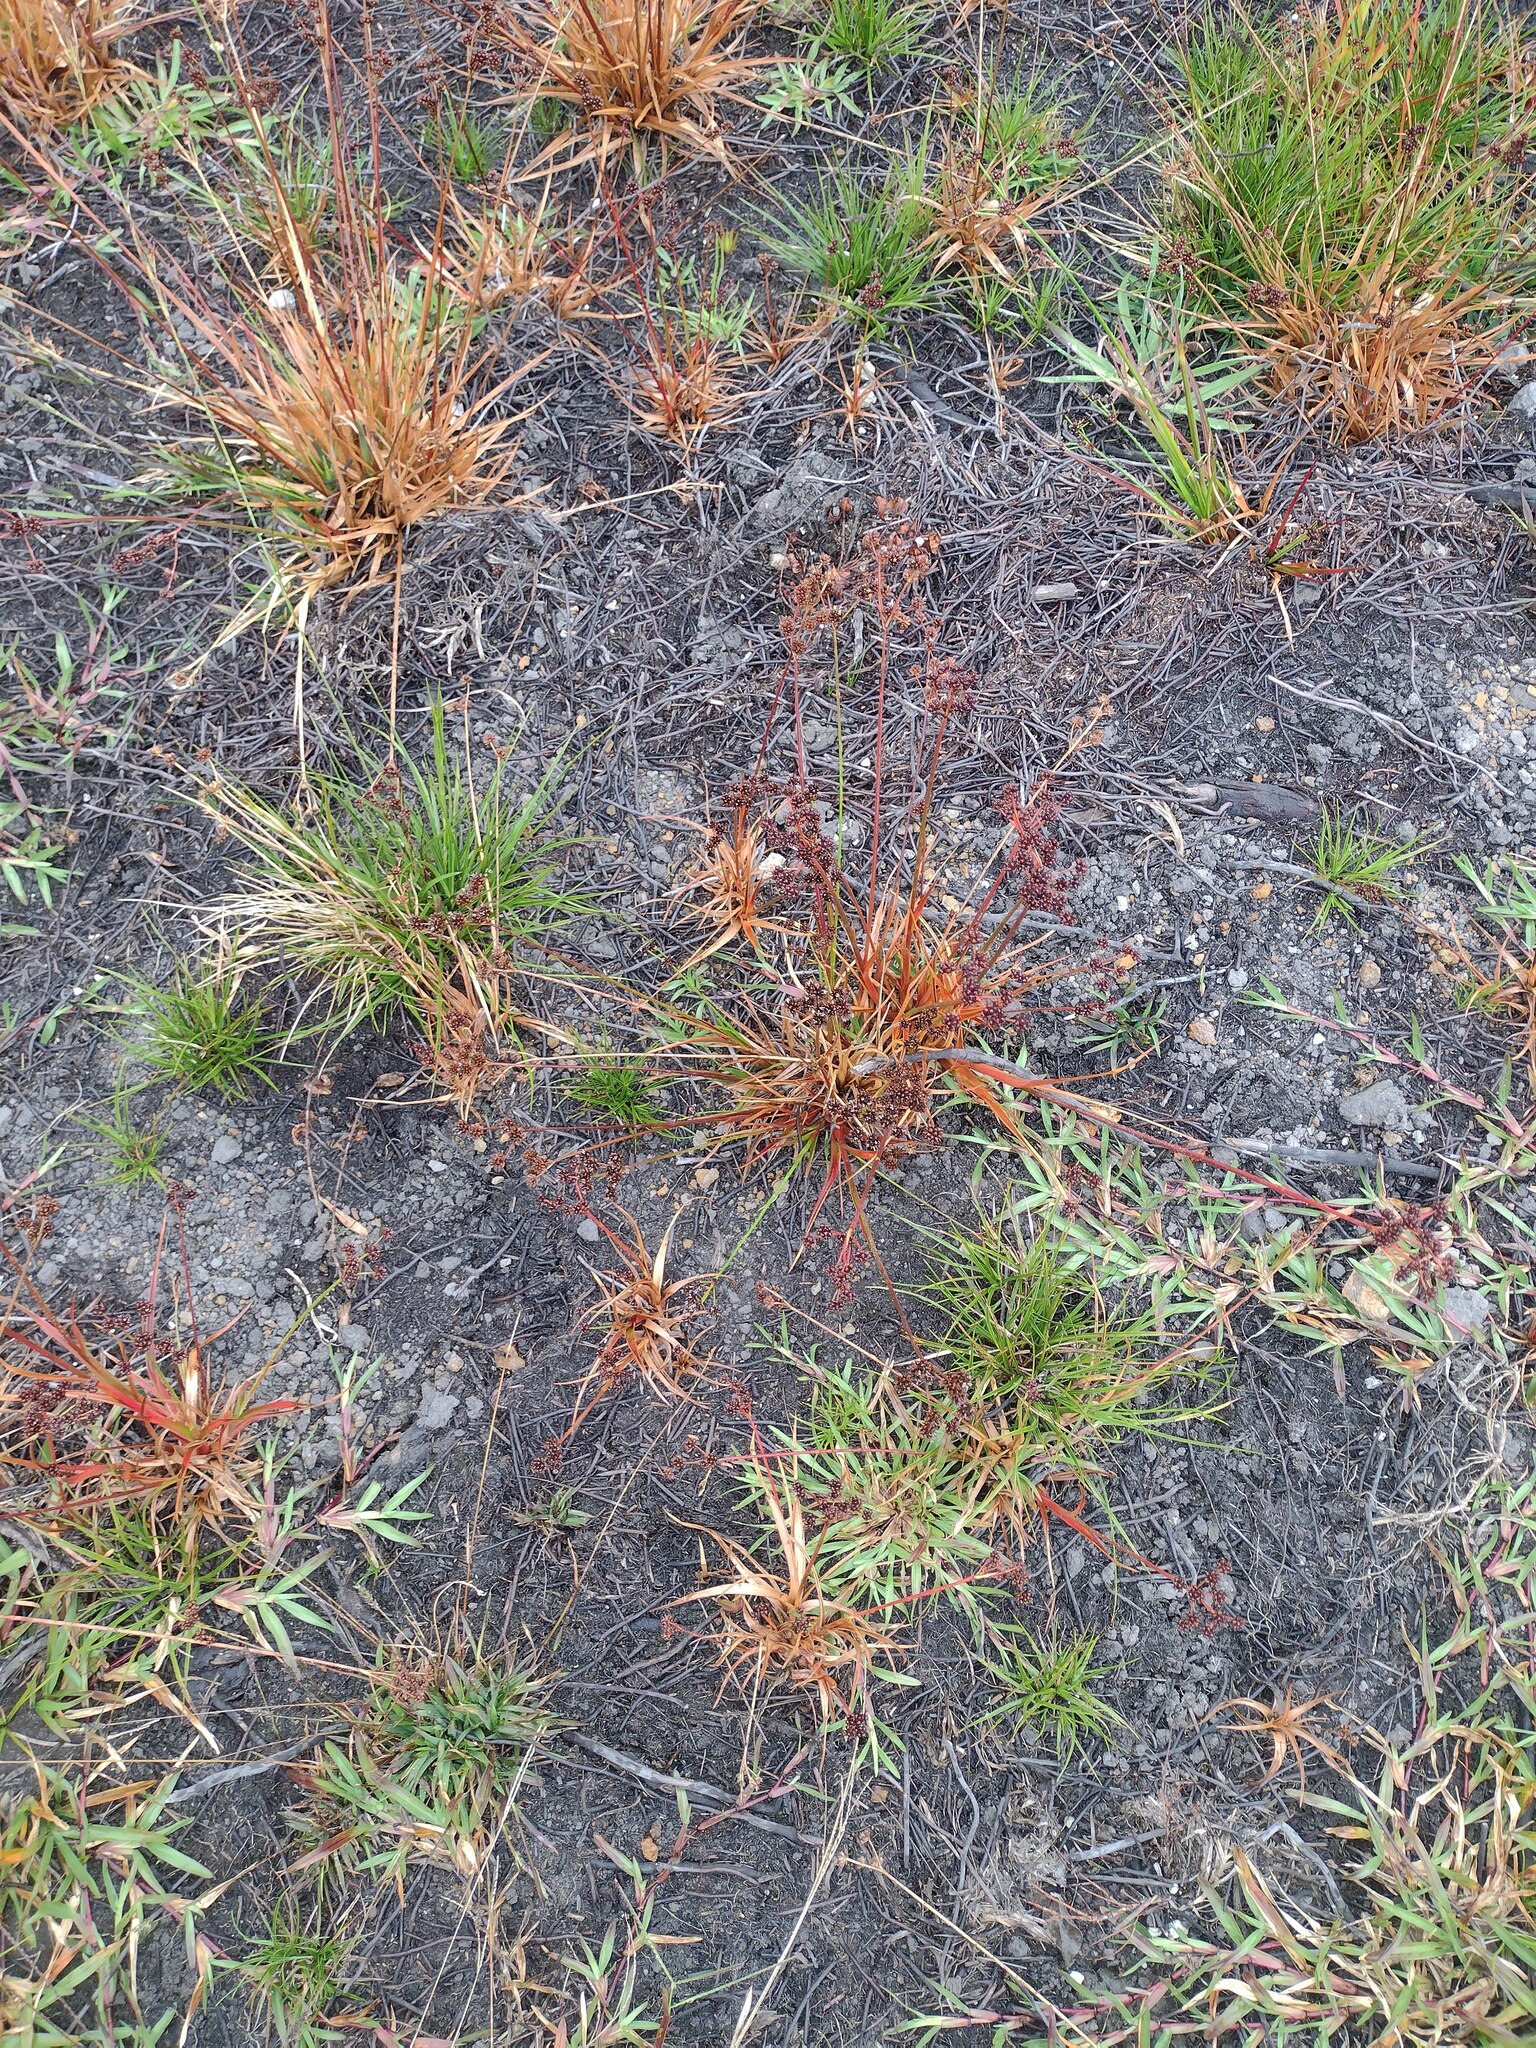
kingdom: Plantae
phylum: Tracheophyta
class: Liliopsida
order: Poales
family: Juncaceae
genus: Juncus
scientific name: Juncus planifolius
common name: Broadleaf rush
